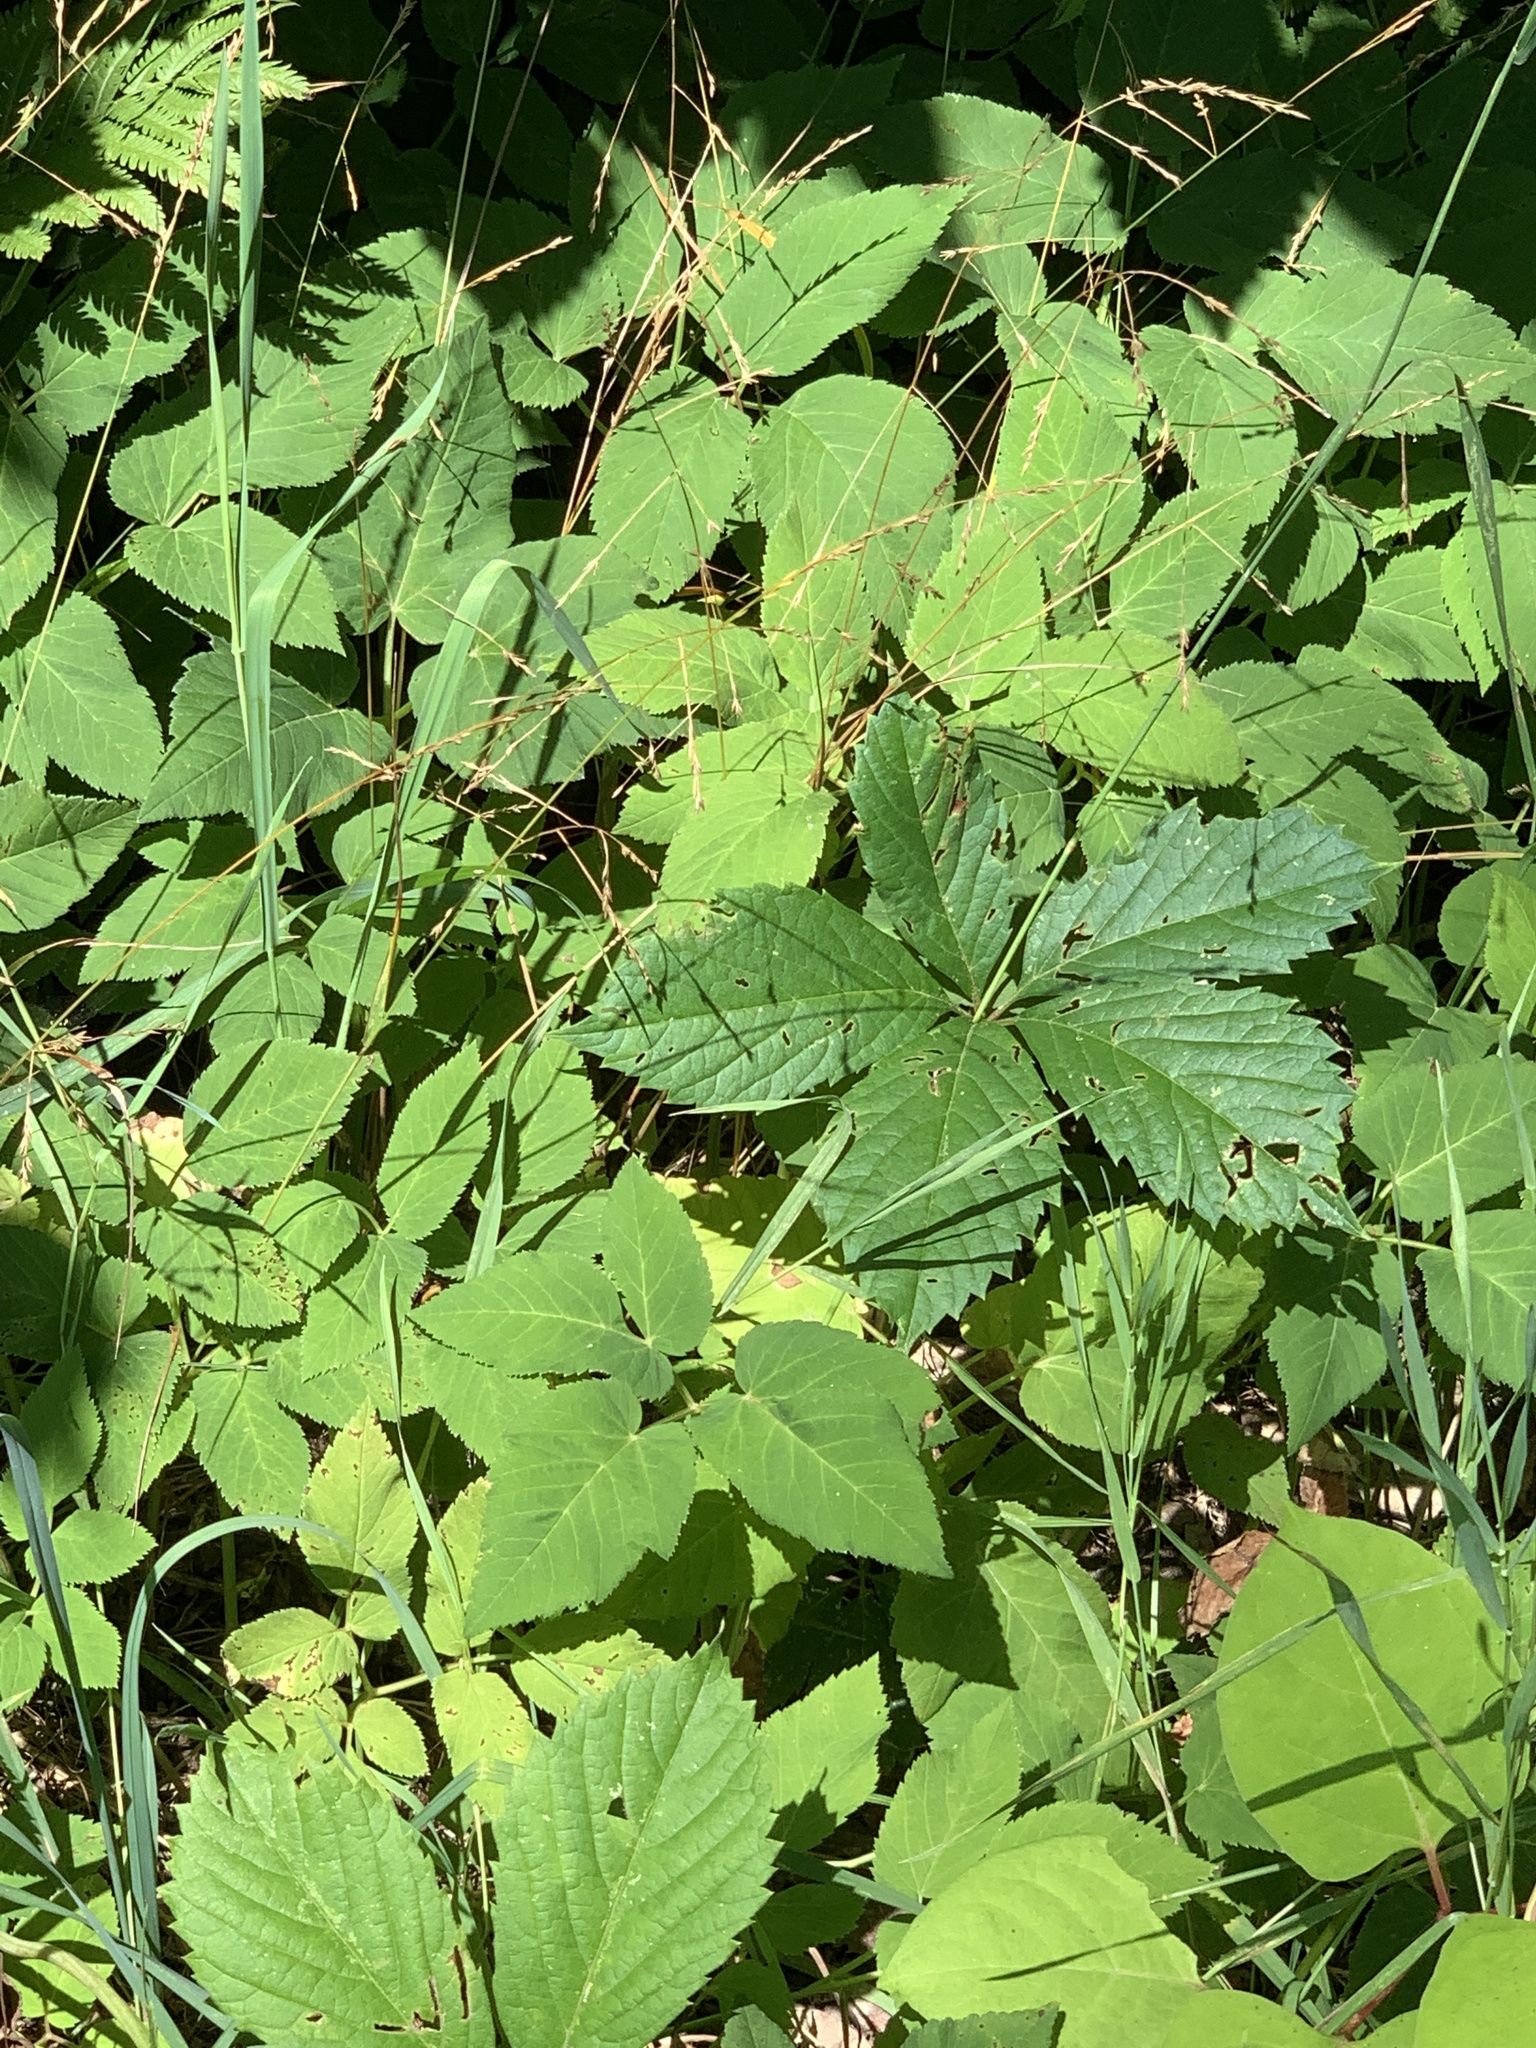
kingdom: Plantae
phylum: Tracheophyta
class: Magnoliopsida
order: Apiales
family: Apiaceae
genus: Aegopodium
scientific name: Aegopodium podagraria
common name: Ground-elder
